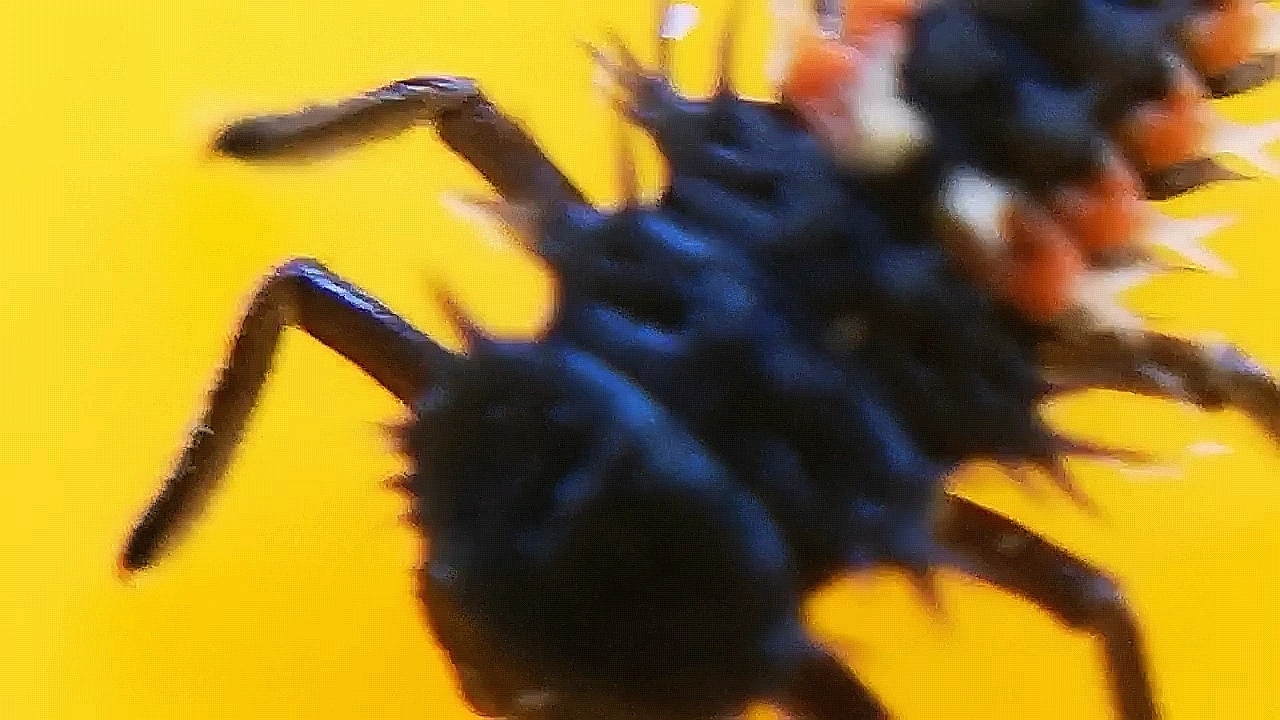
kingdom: Animalia
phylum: Arthropoda
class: Insecta
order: Coleoptera
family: Coccinellidae
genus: Harmonia
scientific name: Harmonia axyridis
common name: Harlequin ladybird
